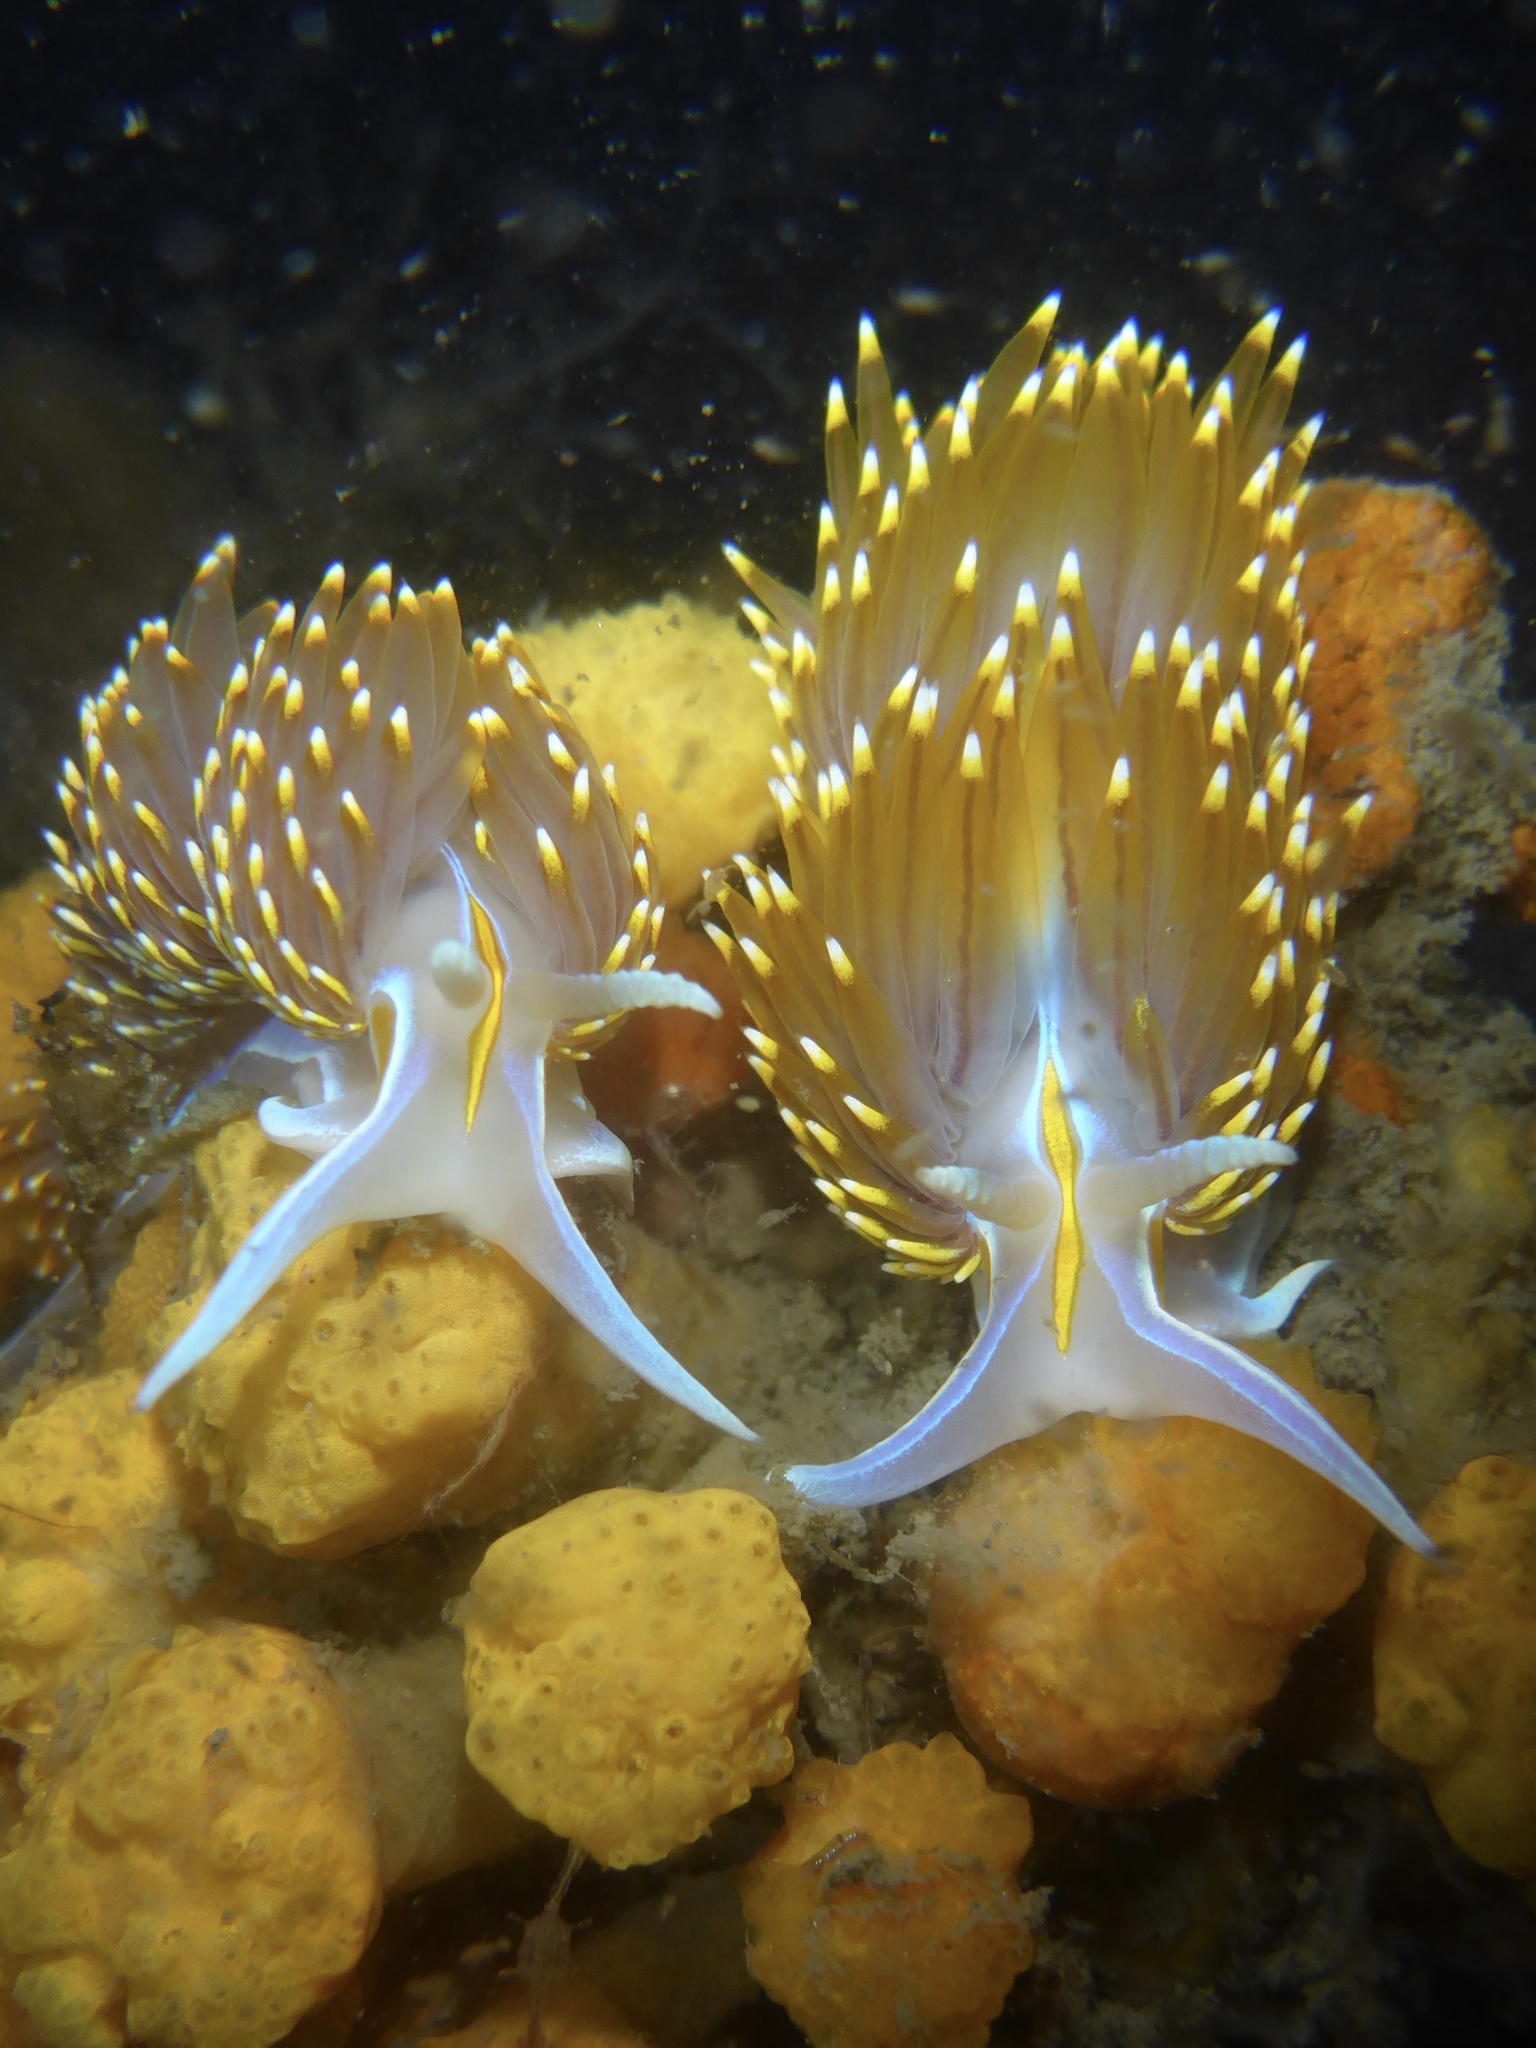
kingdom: Animalia
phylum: Mollusca
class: Gastropoda
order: Nudibranchia
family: Myrrhinidae
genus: Hermissenda
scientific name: Hermissenda opalescens
